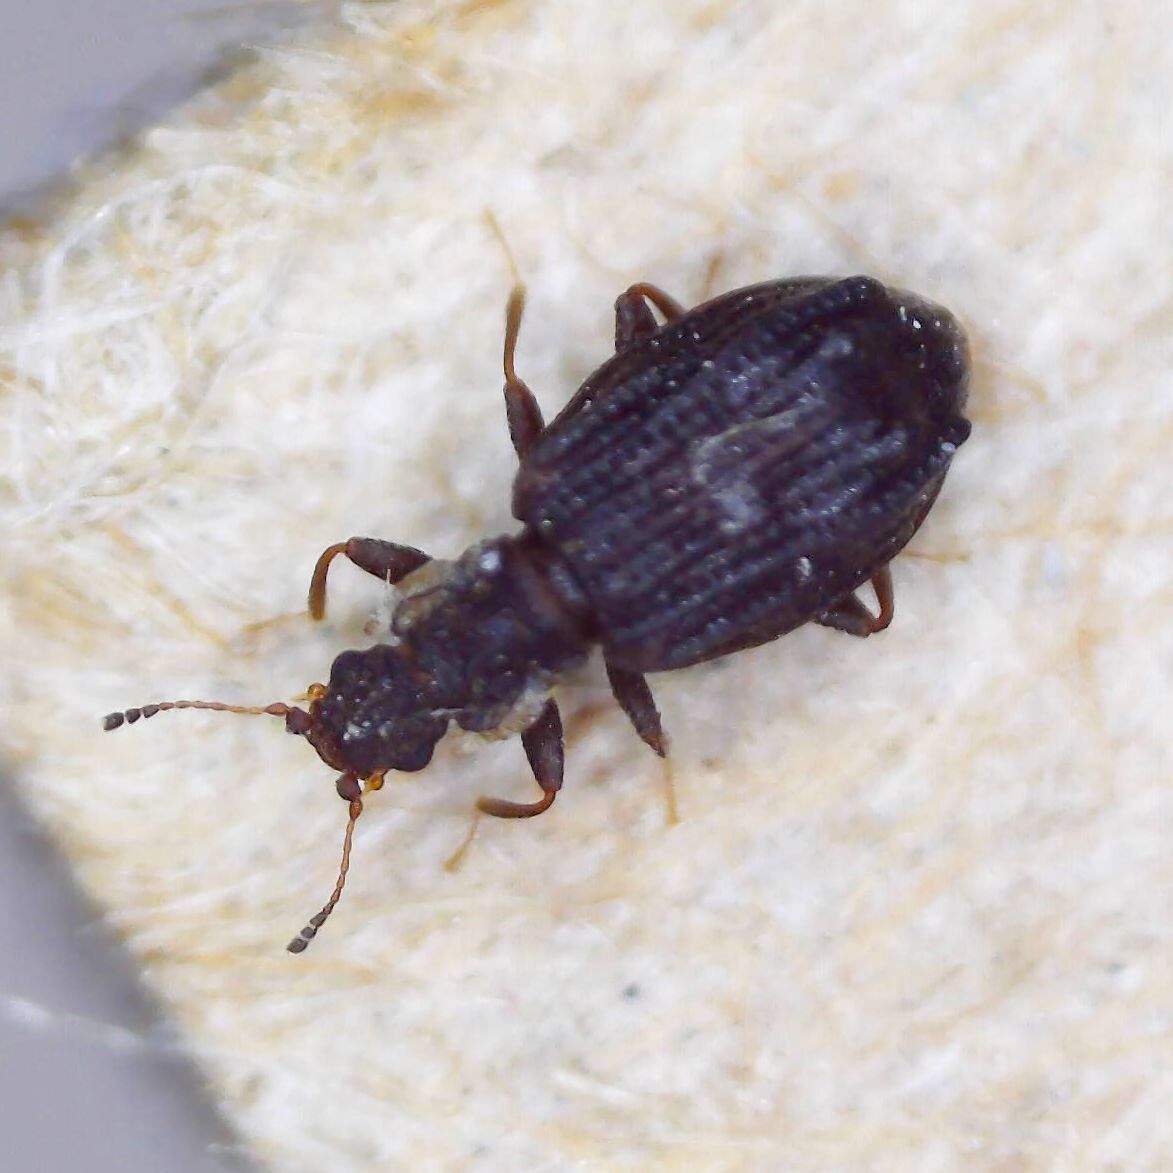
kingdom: Animalia
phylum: Arthropoda
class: Insecta
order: Coleoptera
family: Latridiidae
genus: Cartodere
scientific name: Cartodere nodifer
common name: Humpbacked minute scavenger beetle
